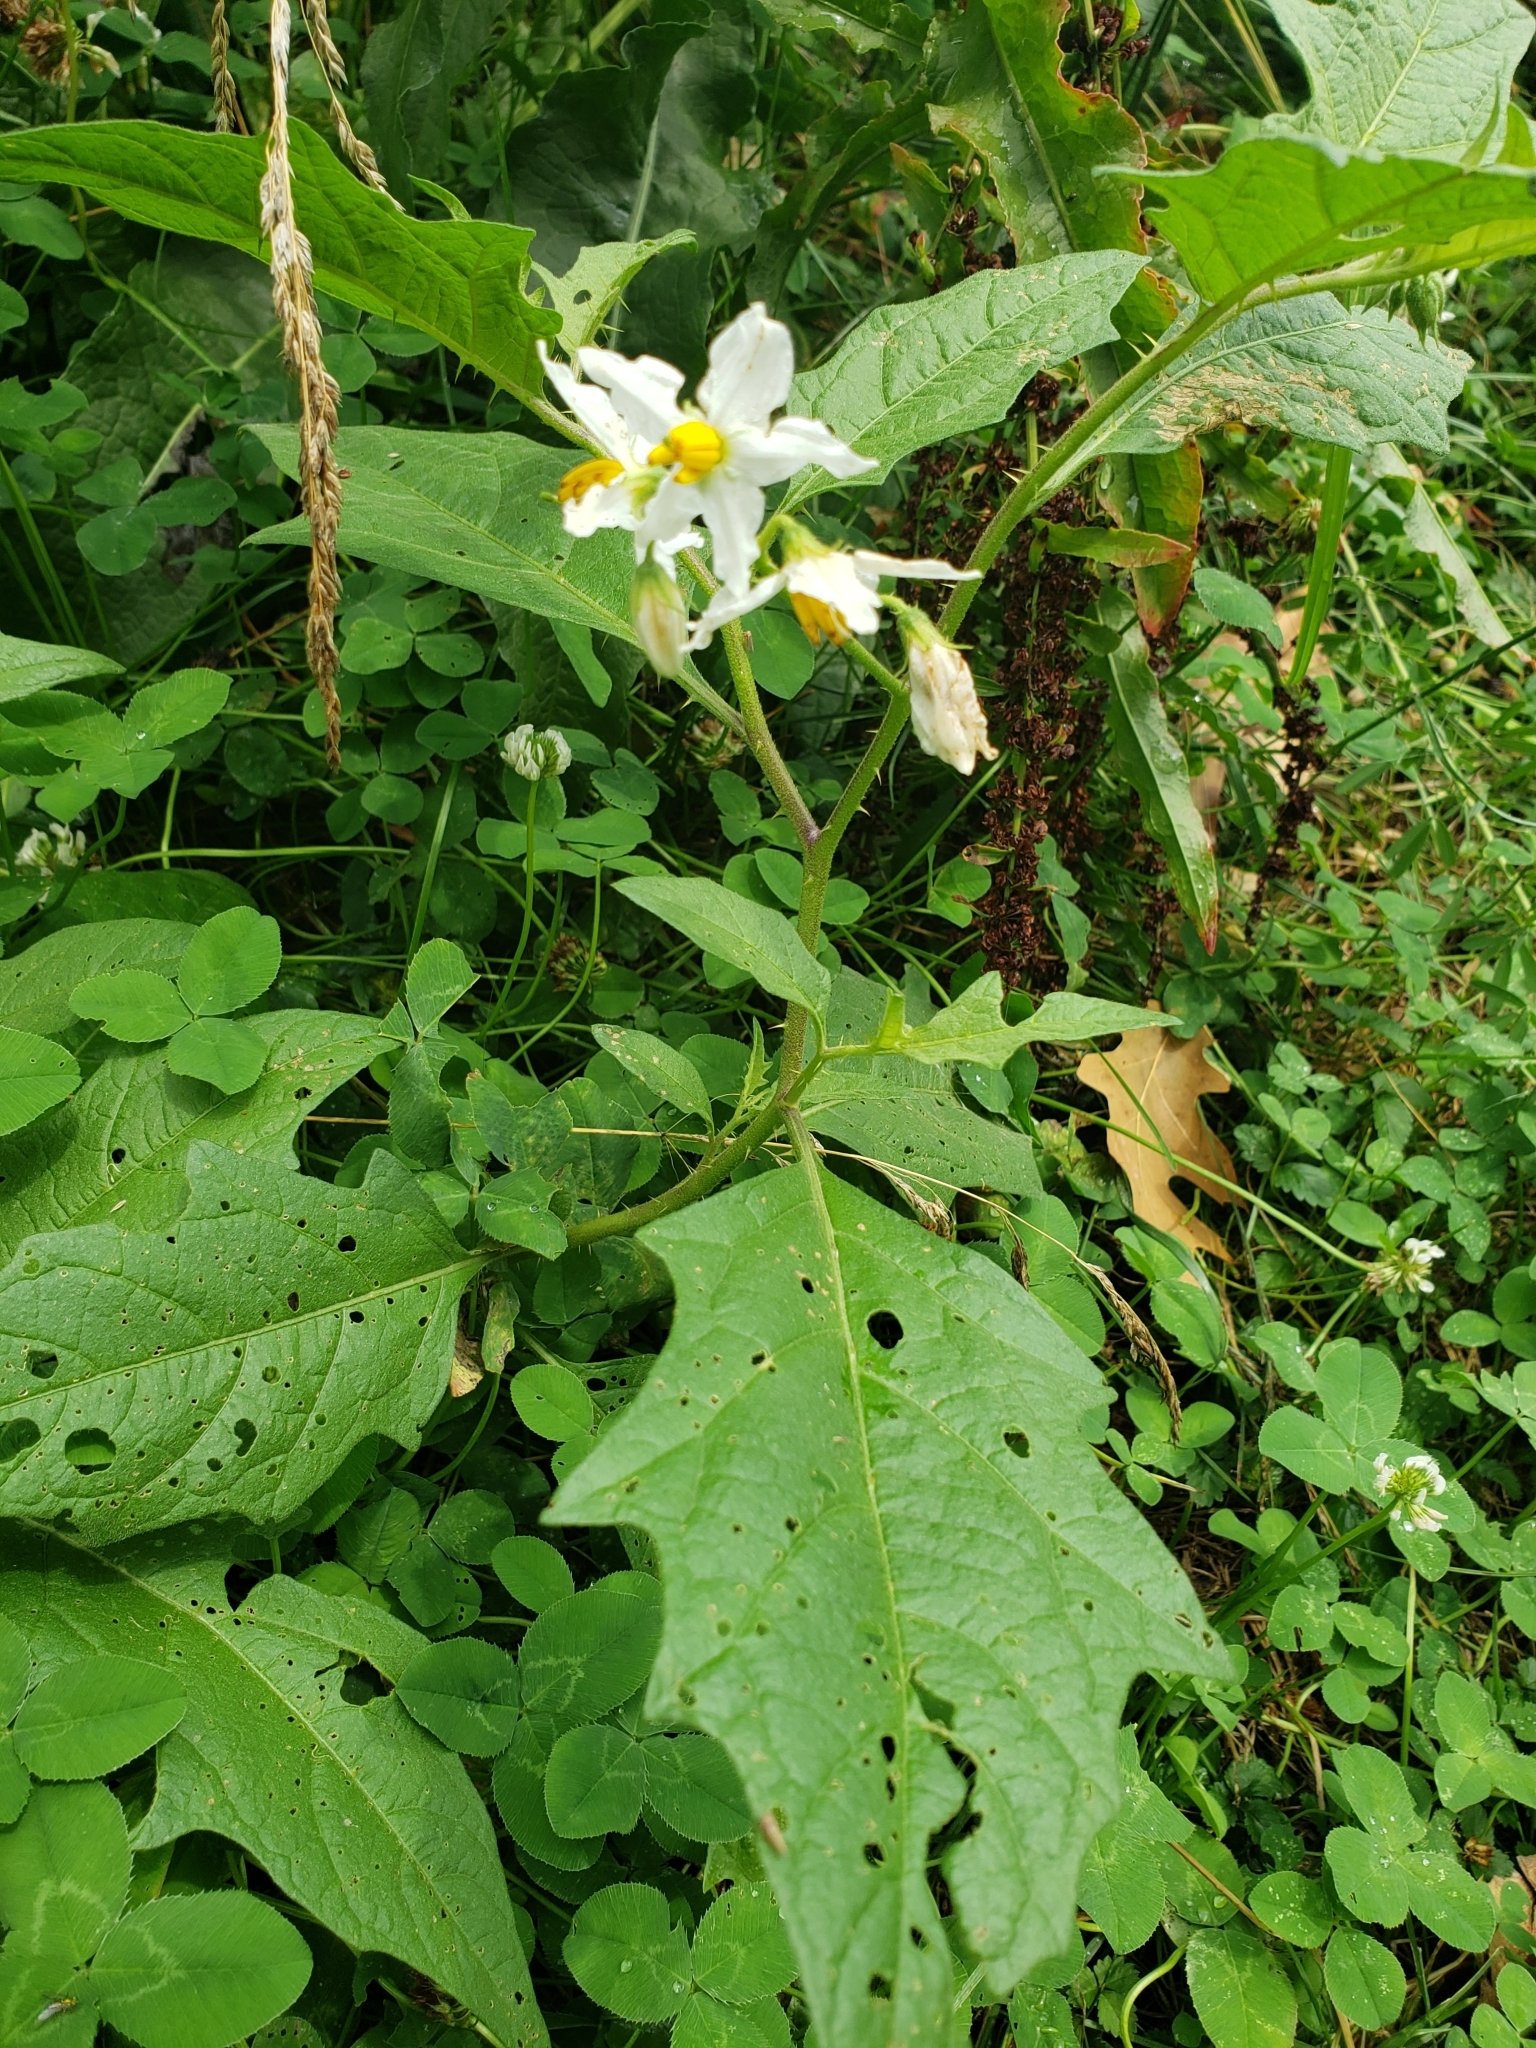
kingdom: Plantae
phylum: Tracheophyta
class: Magnoliopsida
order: Solanales
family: Solanaceae
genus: Solanum
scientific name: Solanum carolinense
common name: Horse-nettle
